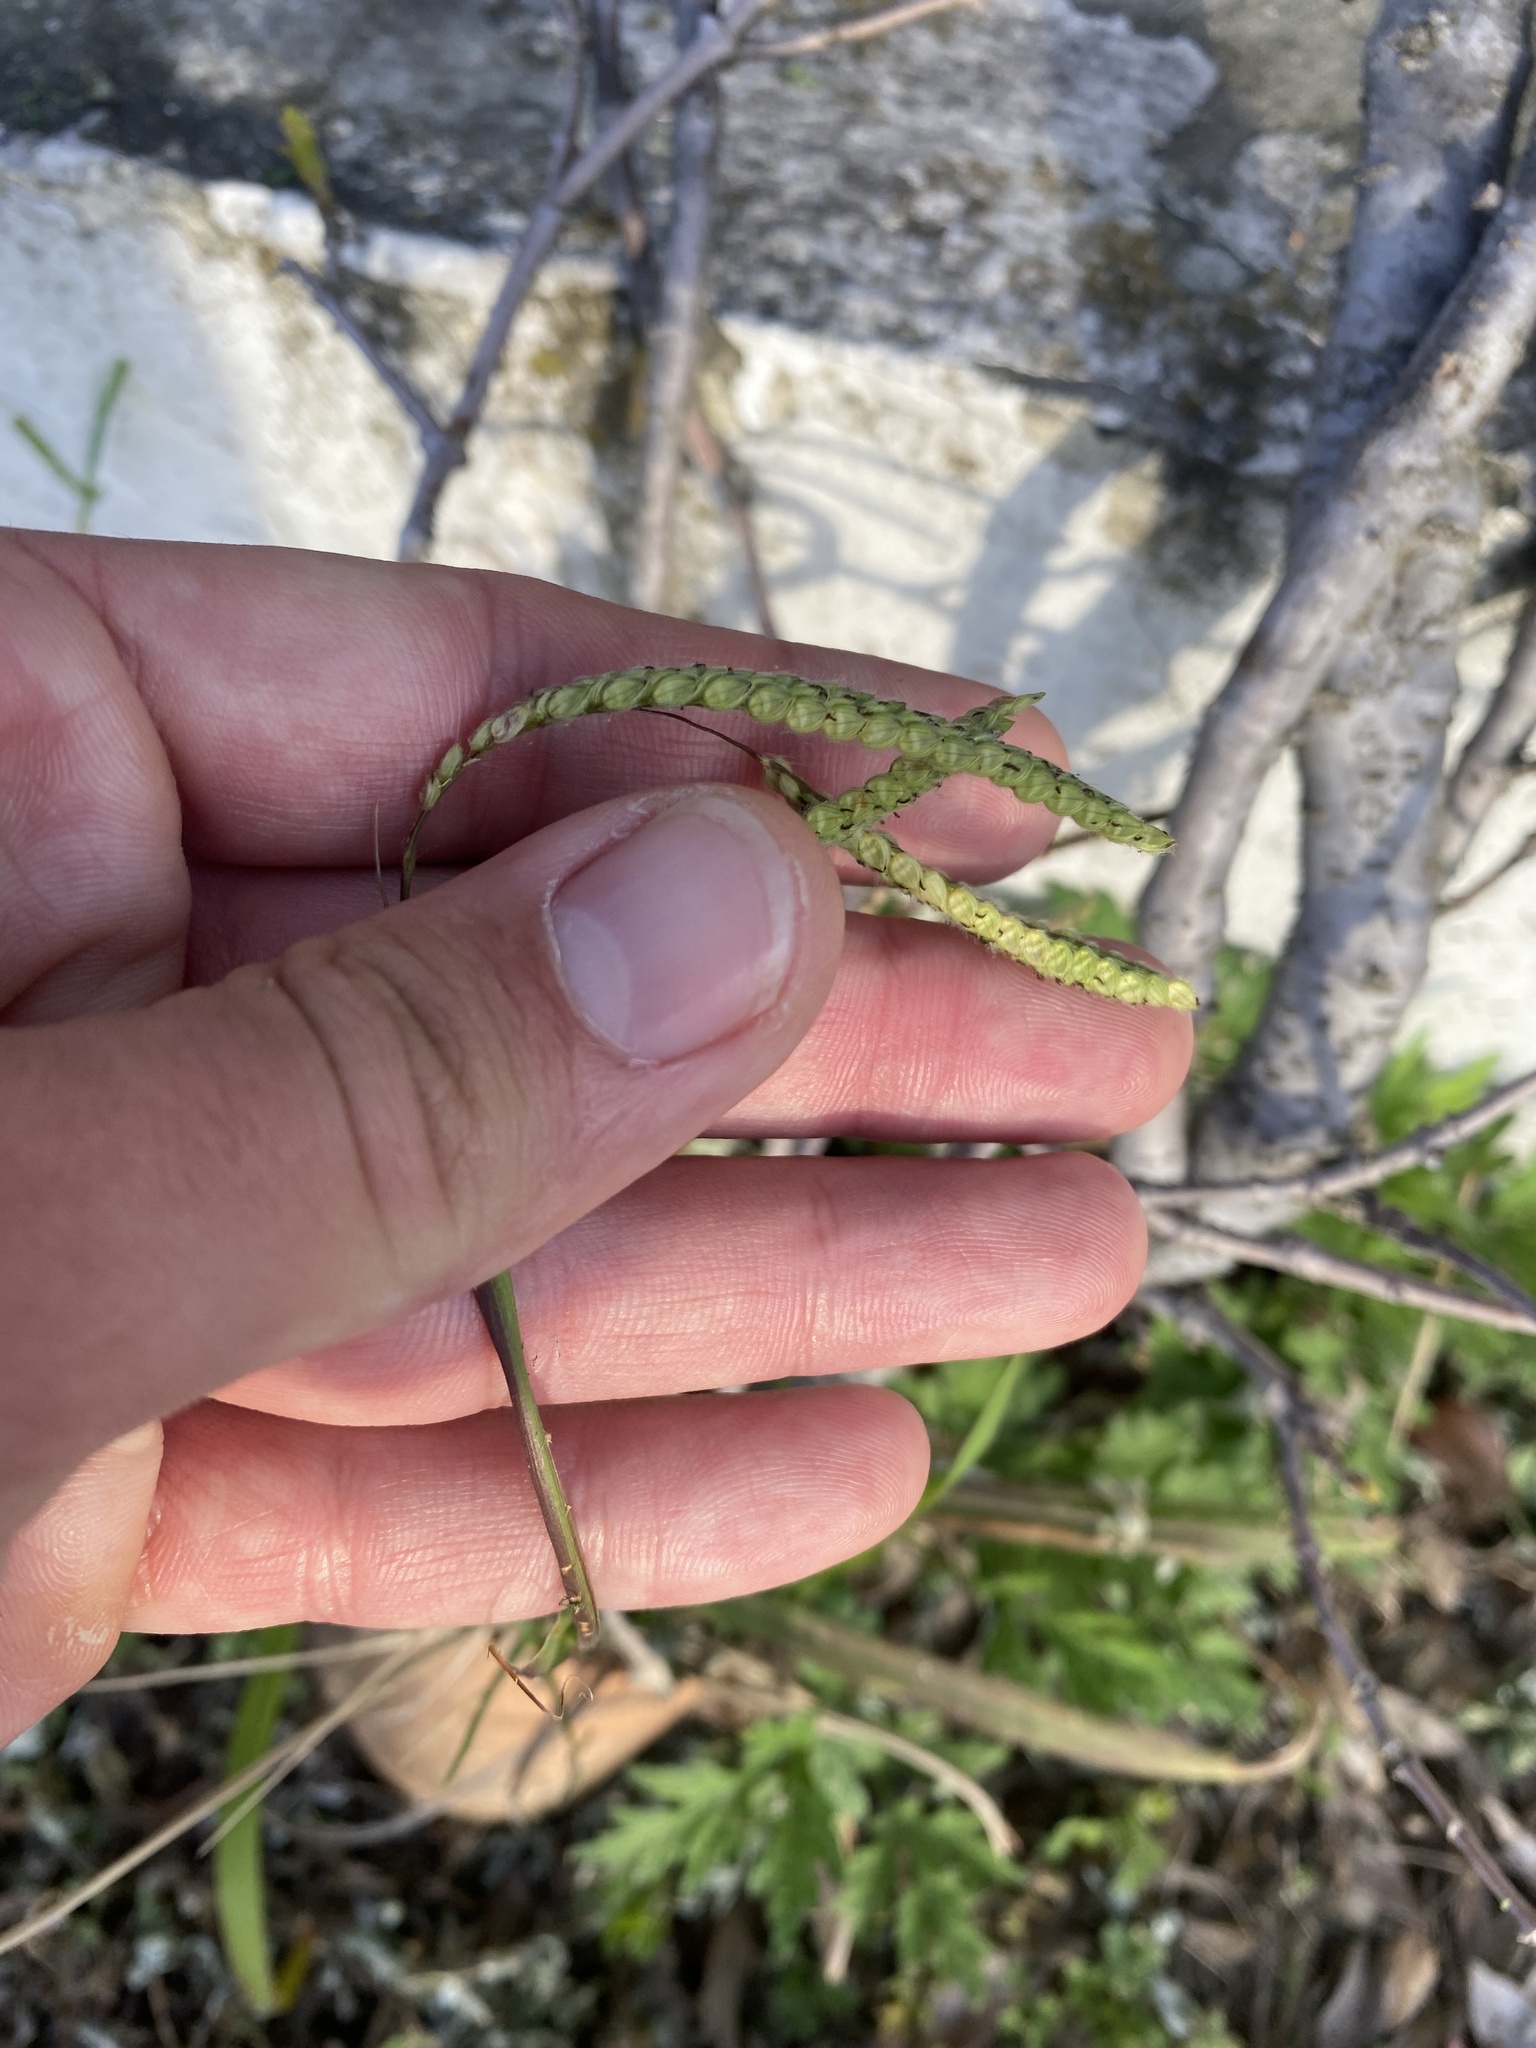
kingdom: Plantae
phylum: Tracheophyta
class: Liliopsida
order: Poales
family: Poaceae
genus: Paspalum
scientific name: Paspalum dilatatum
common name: Dallisgrass
